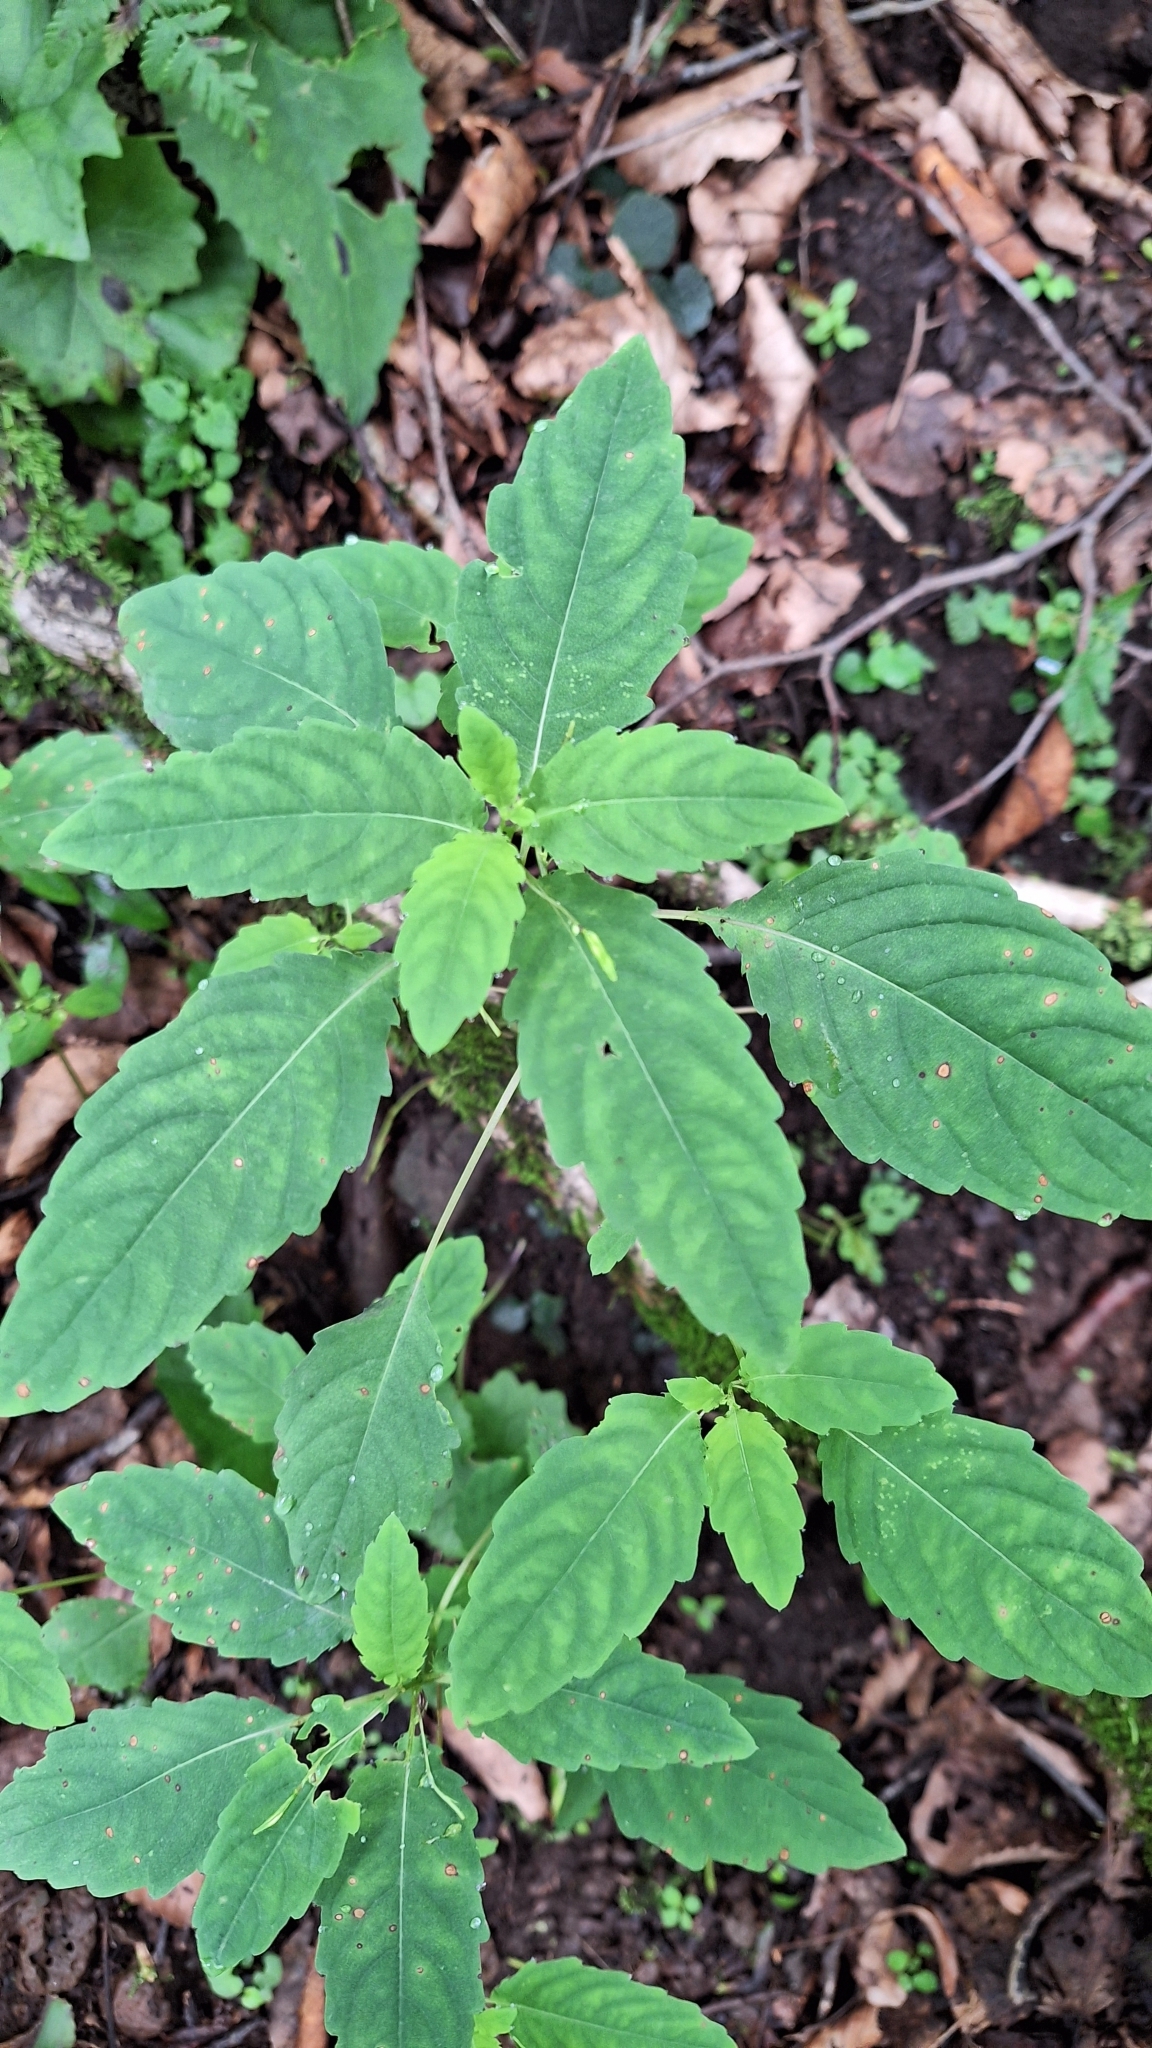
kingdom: Plantae
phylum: Tracheophyta
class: Magnoliopsida
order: Ericales
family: Balsaminaceae
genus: Impatiens
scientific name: Impatiens noli-tangere
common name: Touch-me-not balsam
